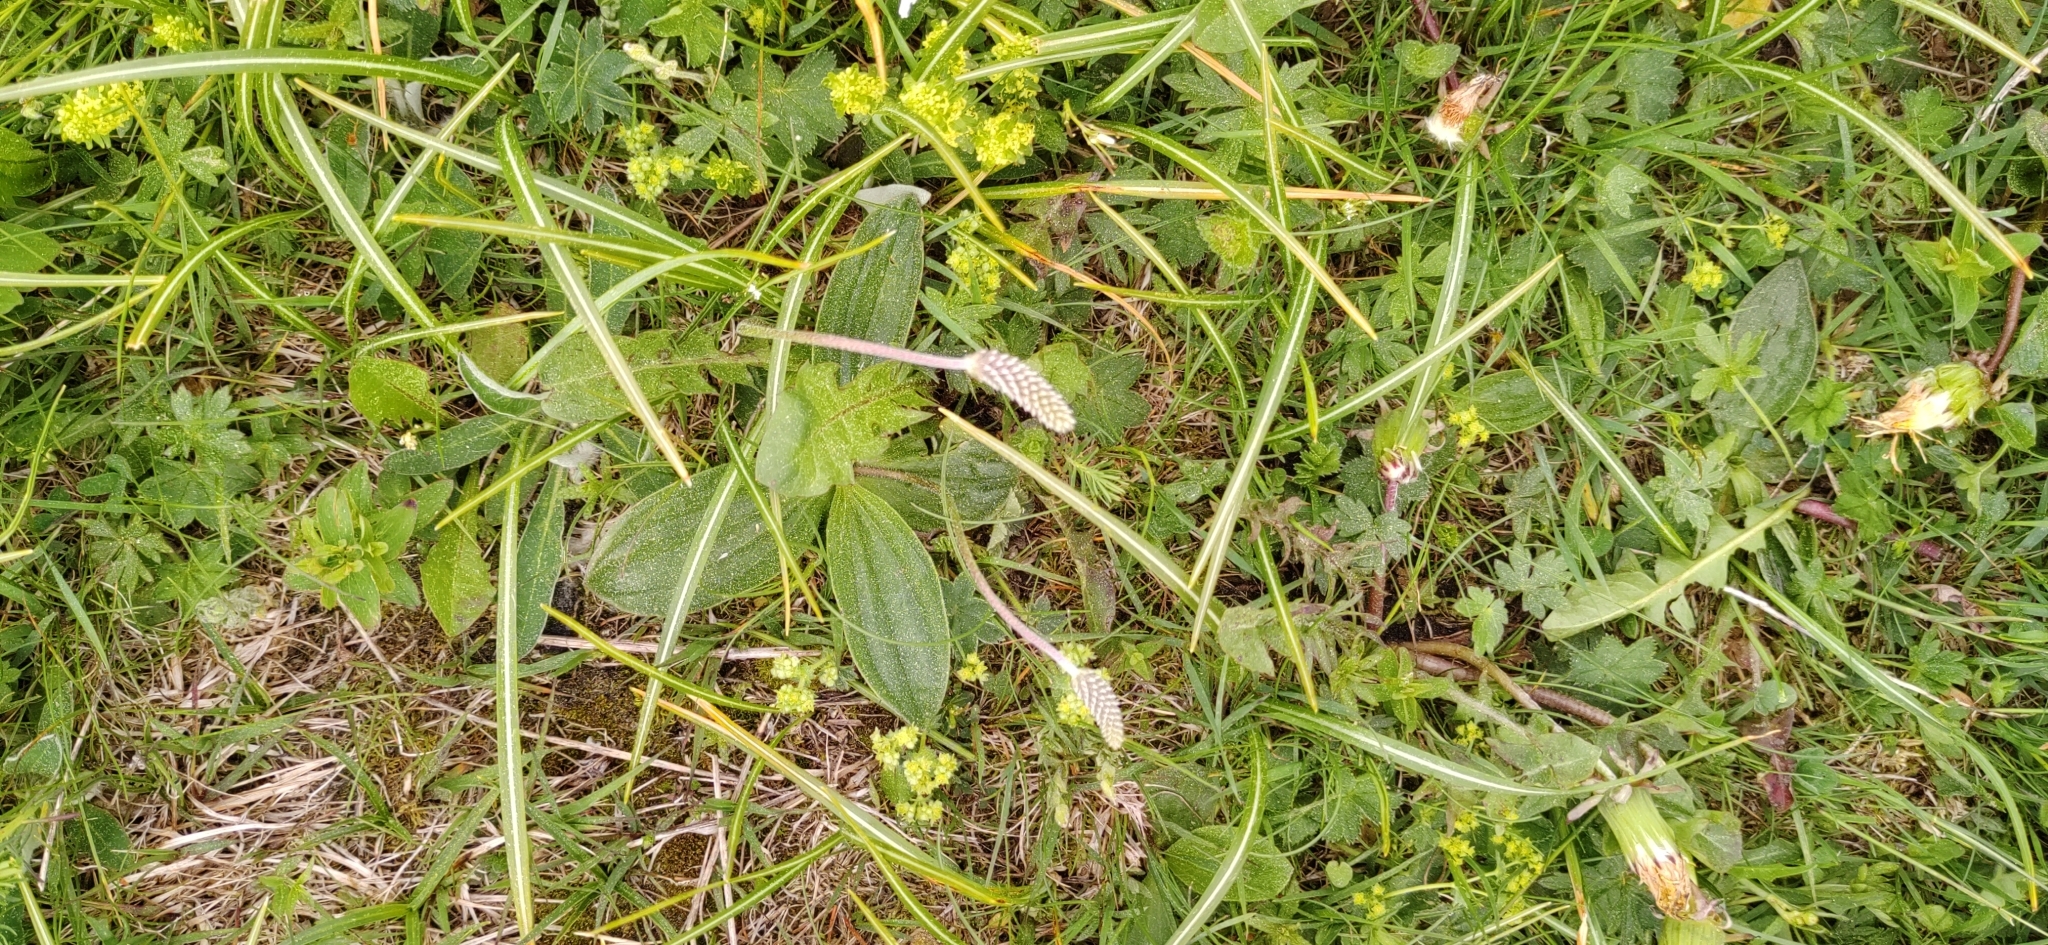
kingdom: Plantae
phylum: Tracheophyta
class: Magnoliopsida
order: Lamiales
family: Plantaginaceae
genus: Plantago
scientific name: Plantago media
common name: Hoary plantain
